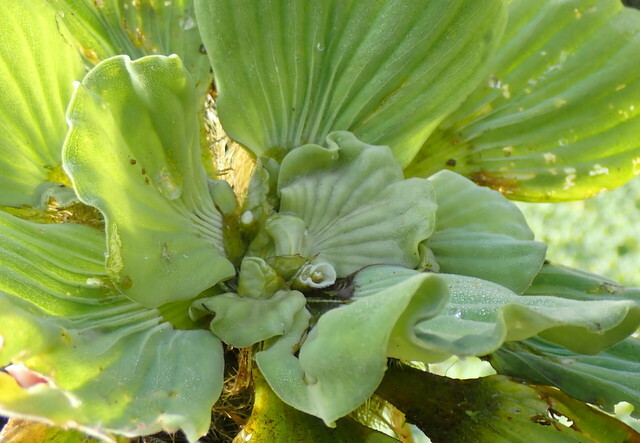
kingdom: Plantae
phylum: Tracheophyta
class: Liliopsida
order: Alismatales
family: Araceae
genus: Pistia
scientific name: Pistia stratiotes
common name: Water lettuce
